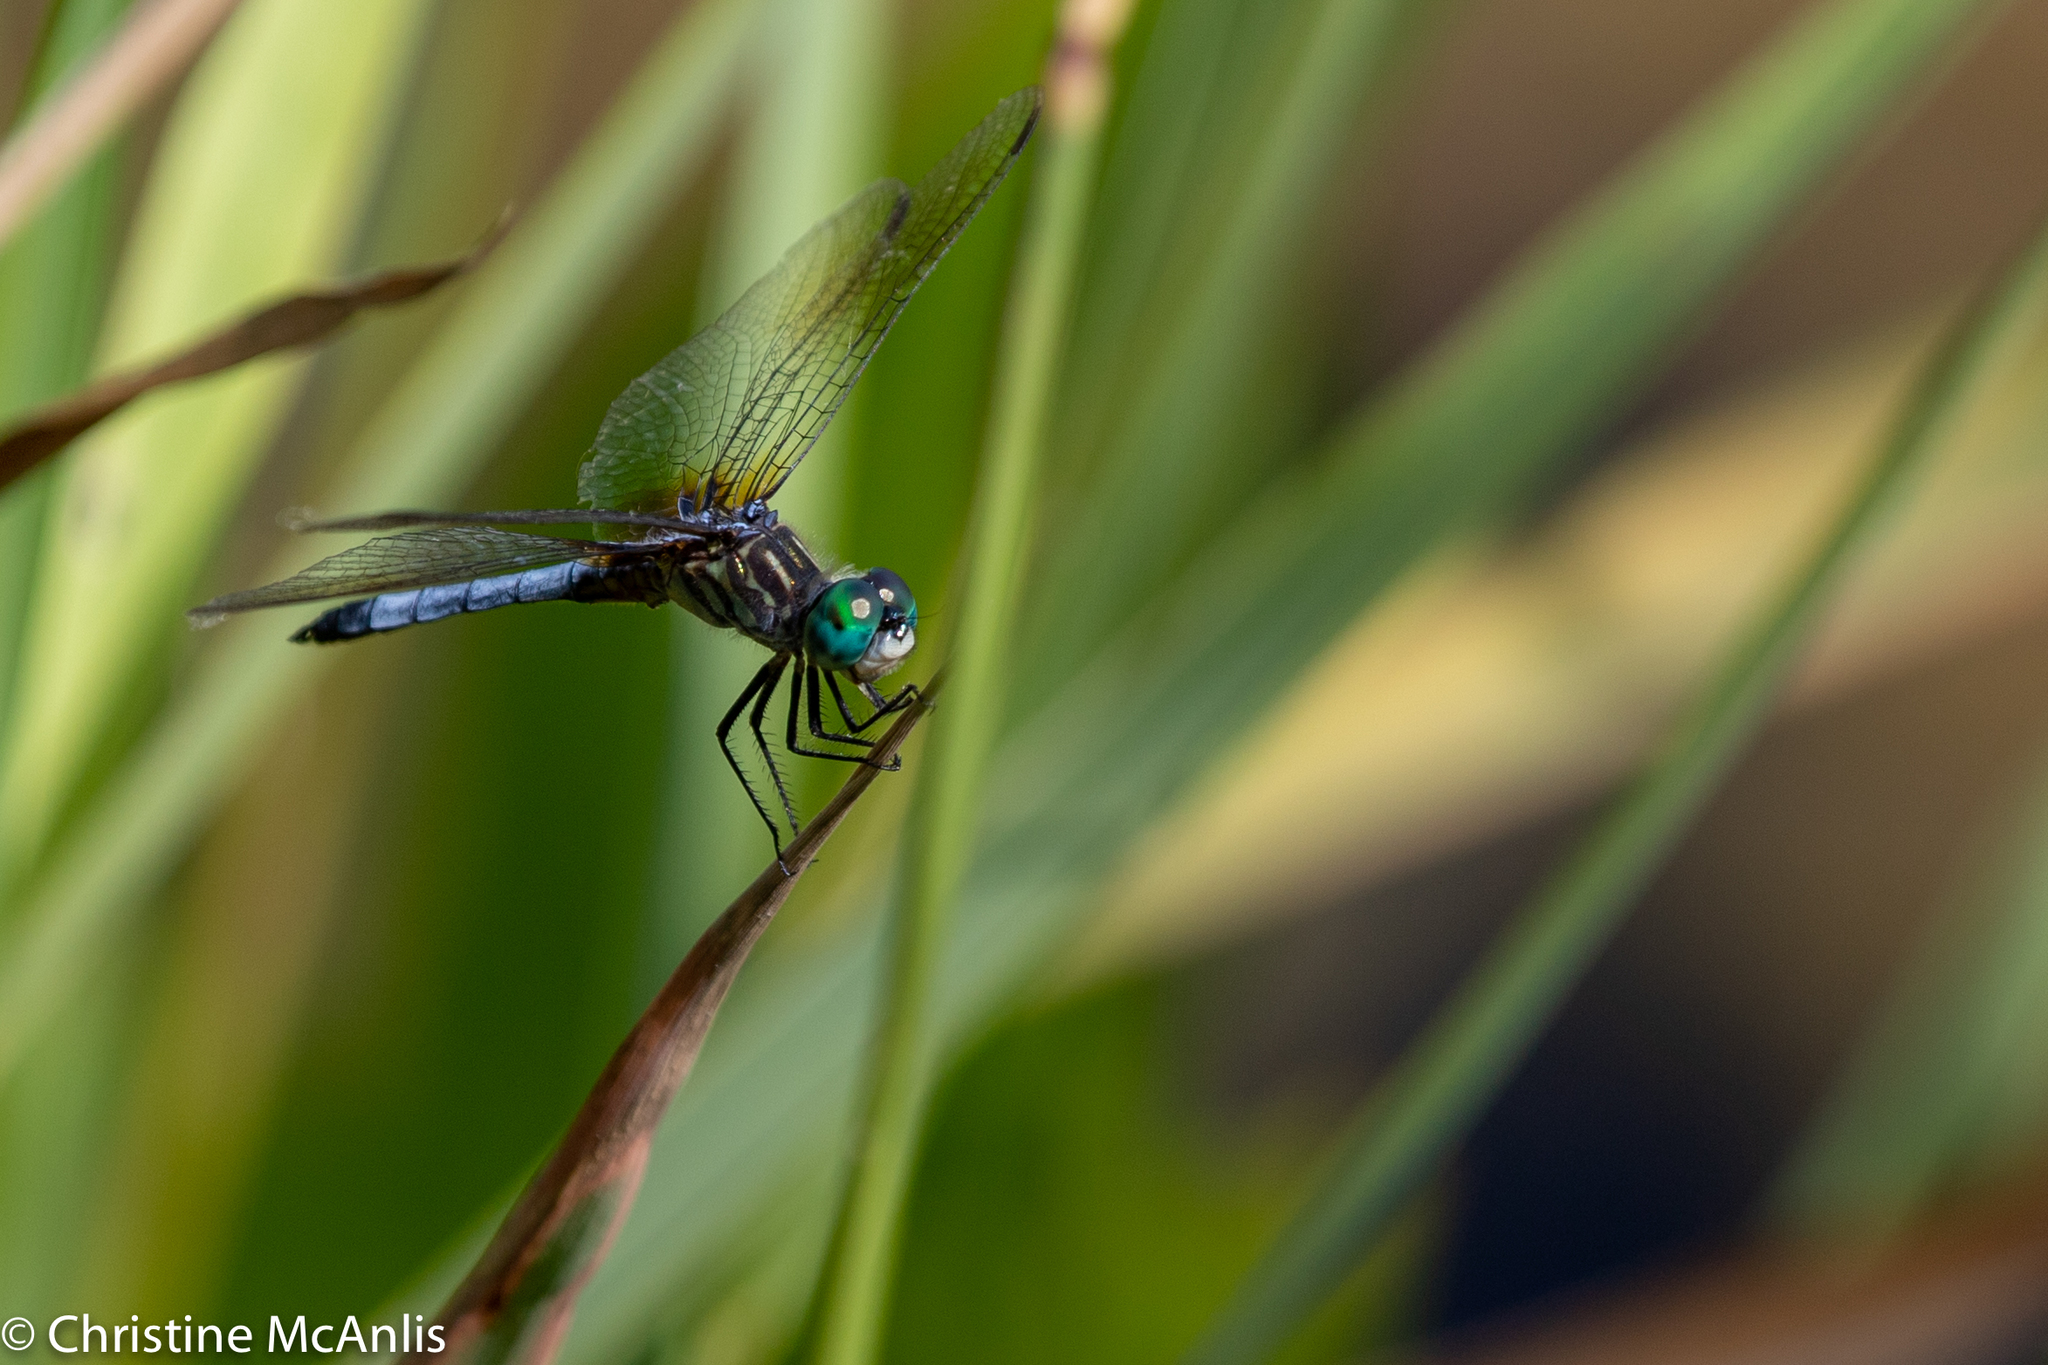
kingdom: Animalia
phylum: Arthropoda
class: Insecta
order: Odonata
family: Libellulidae
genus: Pachydiplax
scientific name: Pachydiplax longipennis
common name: Blue dasher
